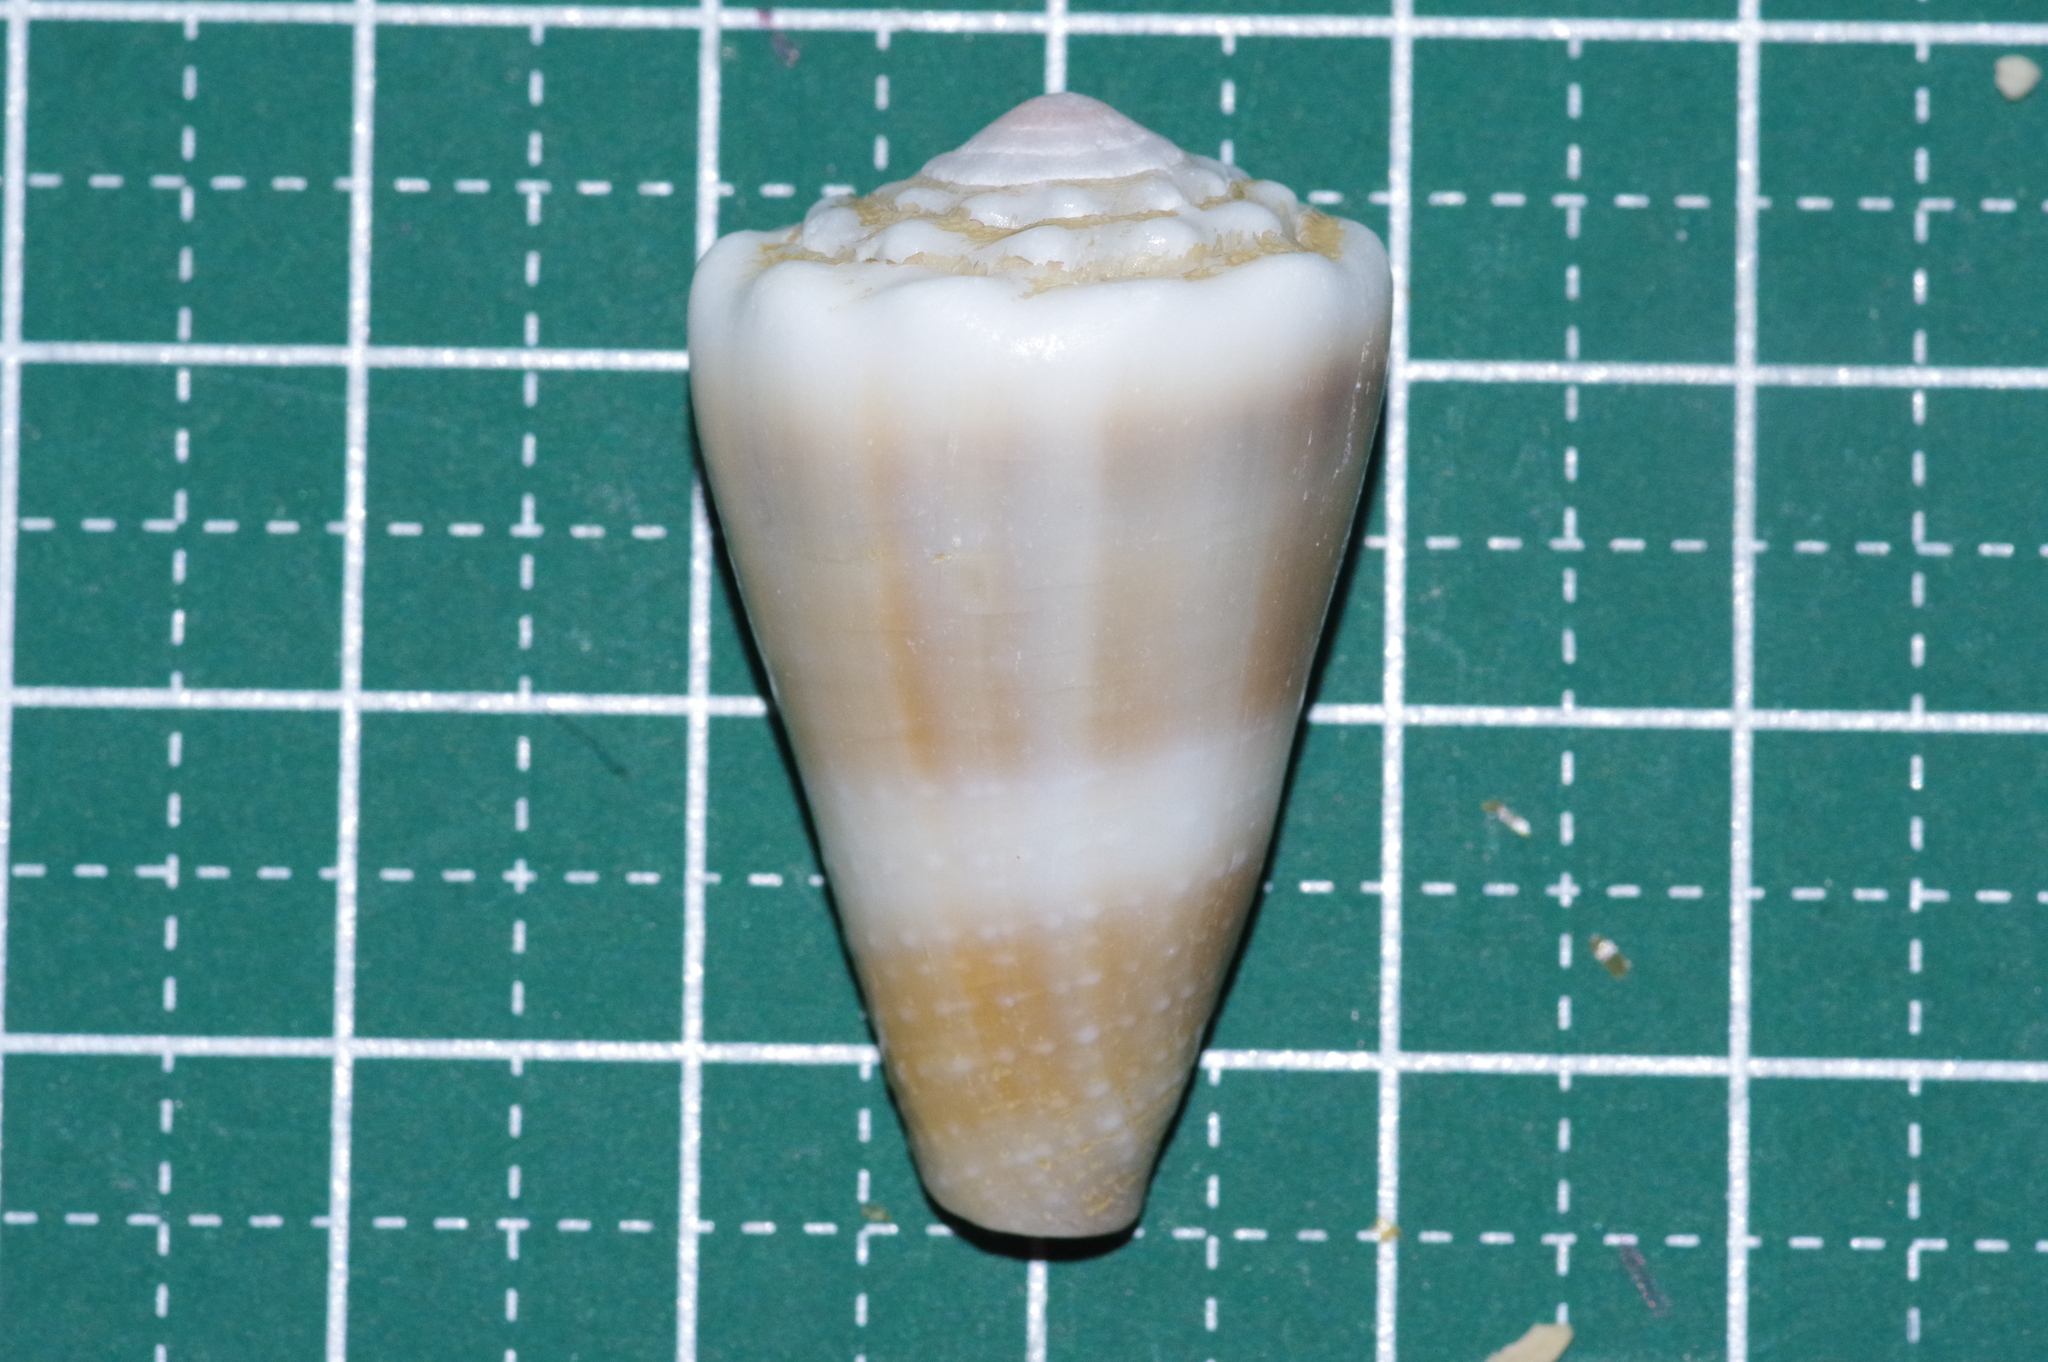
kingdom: Animalia
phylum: Mollusca
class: Gastropoda
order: Neogastropoda
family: Conidae
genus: Conus
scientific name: Conus lividus
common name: Livid cone
